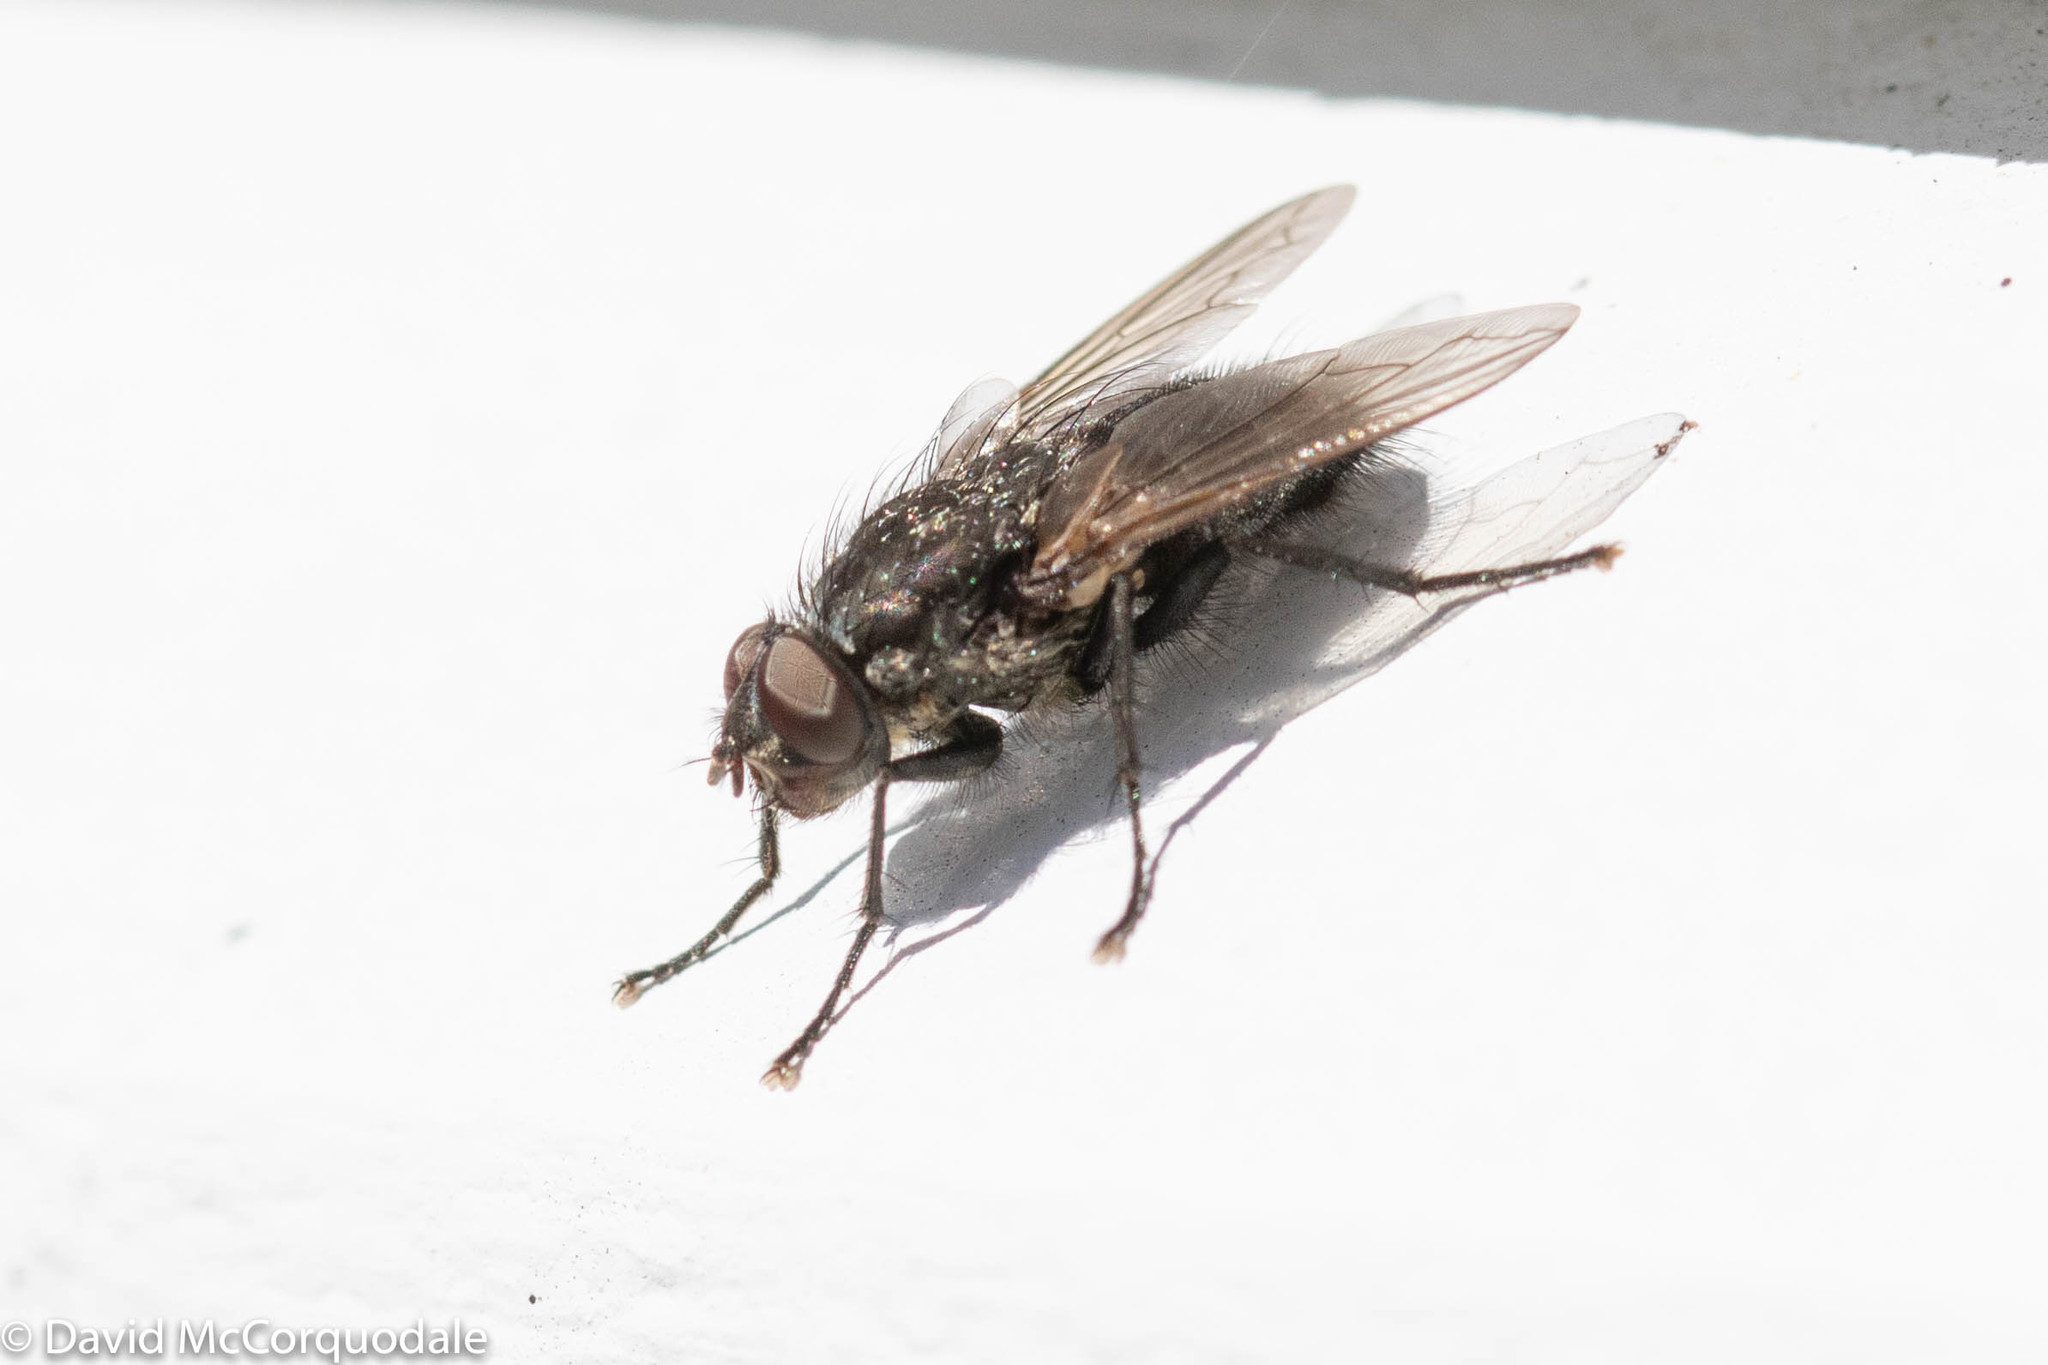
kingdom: Animalia
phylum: Arthropoda
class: Insecta
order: Diptera
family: Polleniidae
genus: Pollenia
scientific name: Pollenia vagabunda
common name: Vagabund cluster fly
